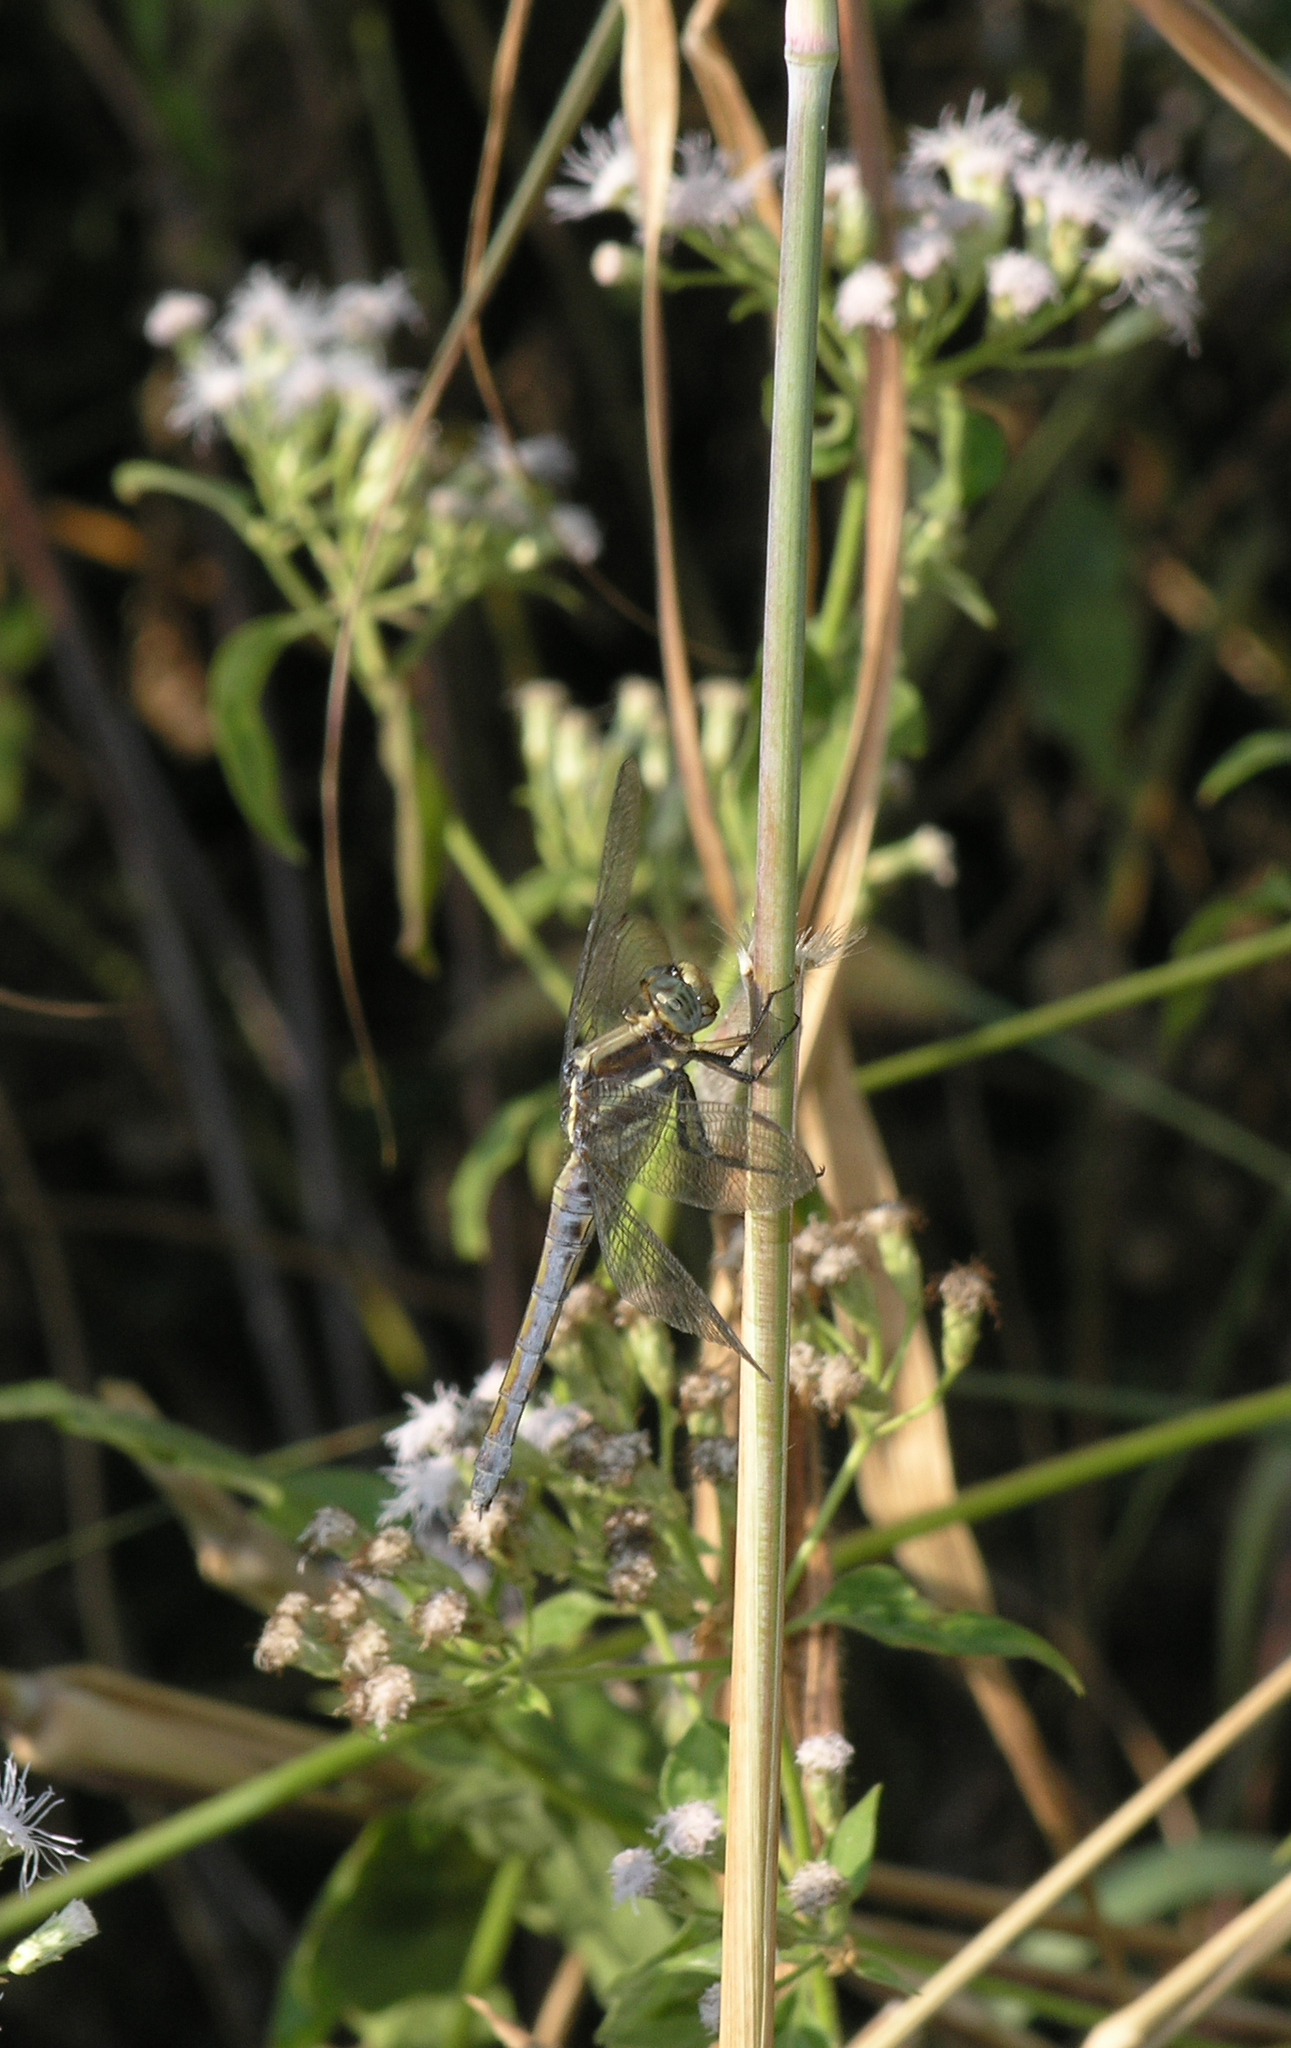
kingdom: Animalia
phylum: Arthropoda
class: Insecta
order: Odonata
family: Libellulidae
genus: Orthetrum
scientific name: Orthetrum glaucum
